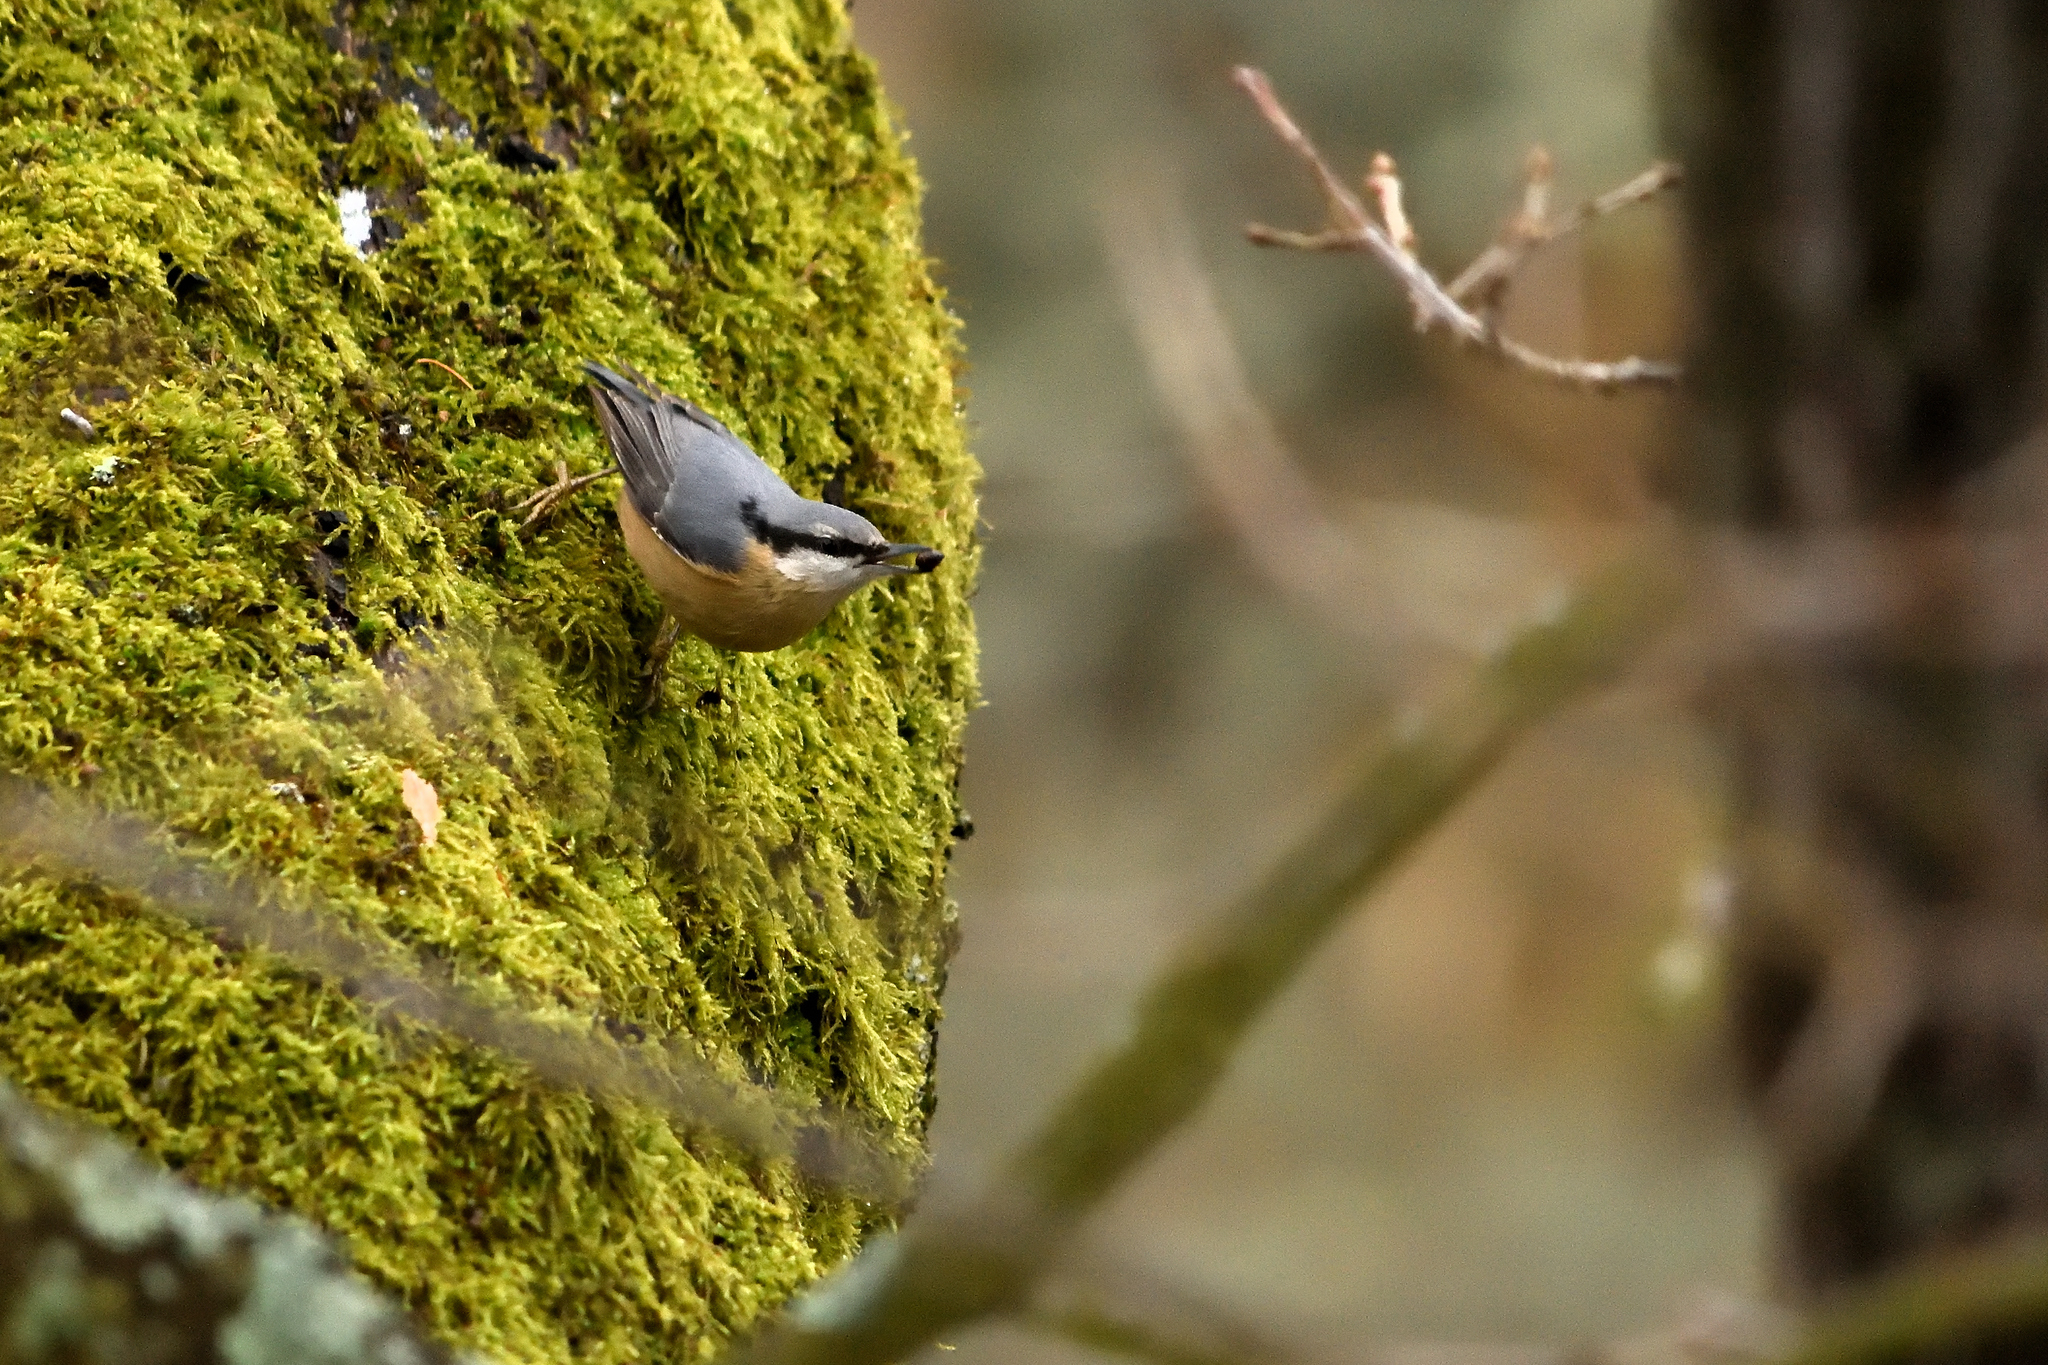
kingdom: Animalia
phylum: Chordata
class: Aves
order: Passeriformes
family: Sittidae
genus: Sitta
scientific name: Sitta europaea
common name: Eurasian nuthatch
